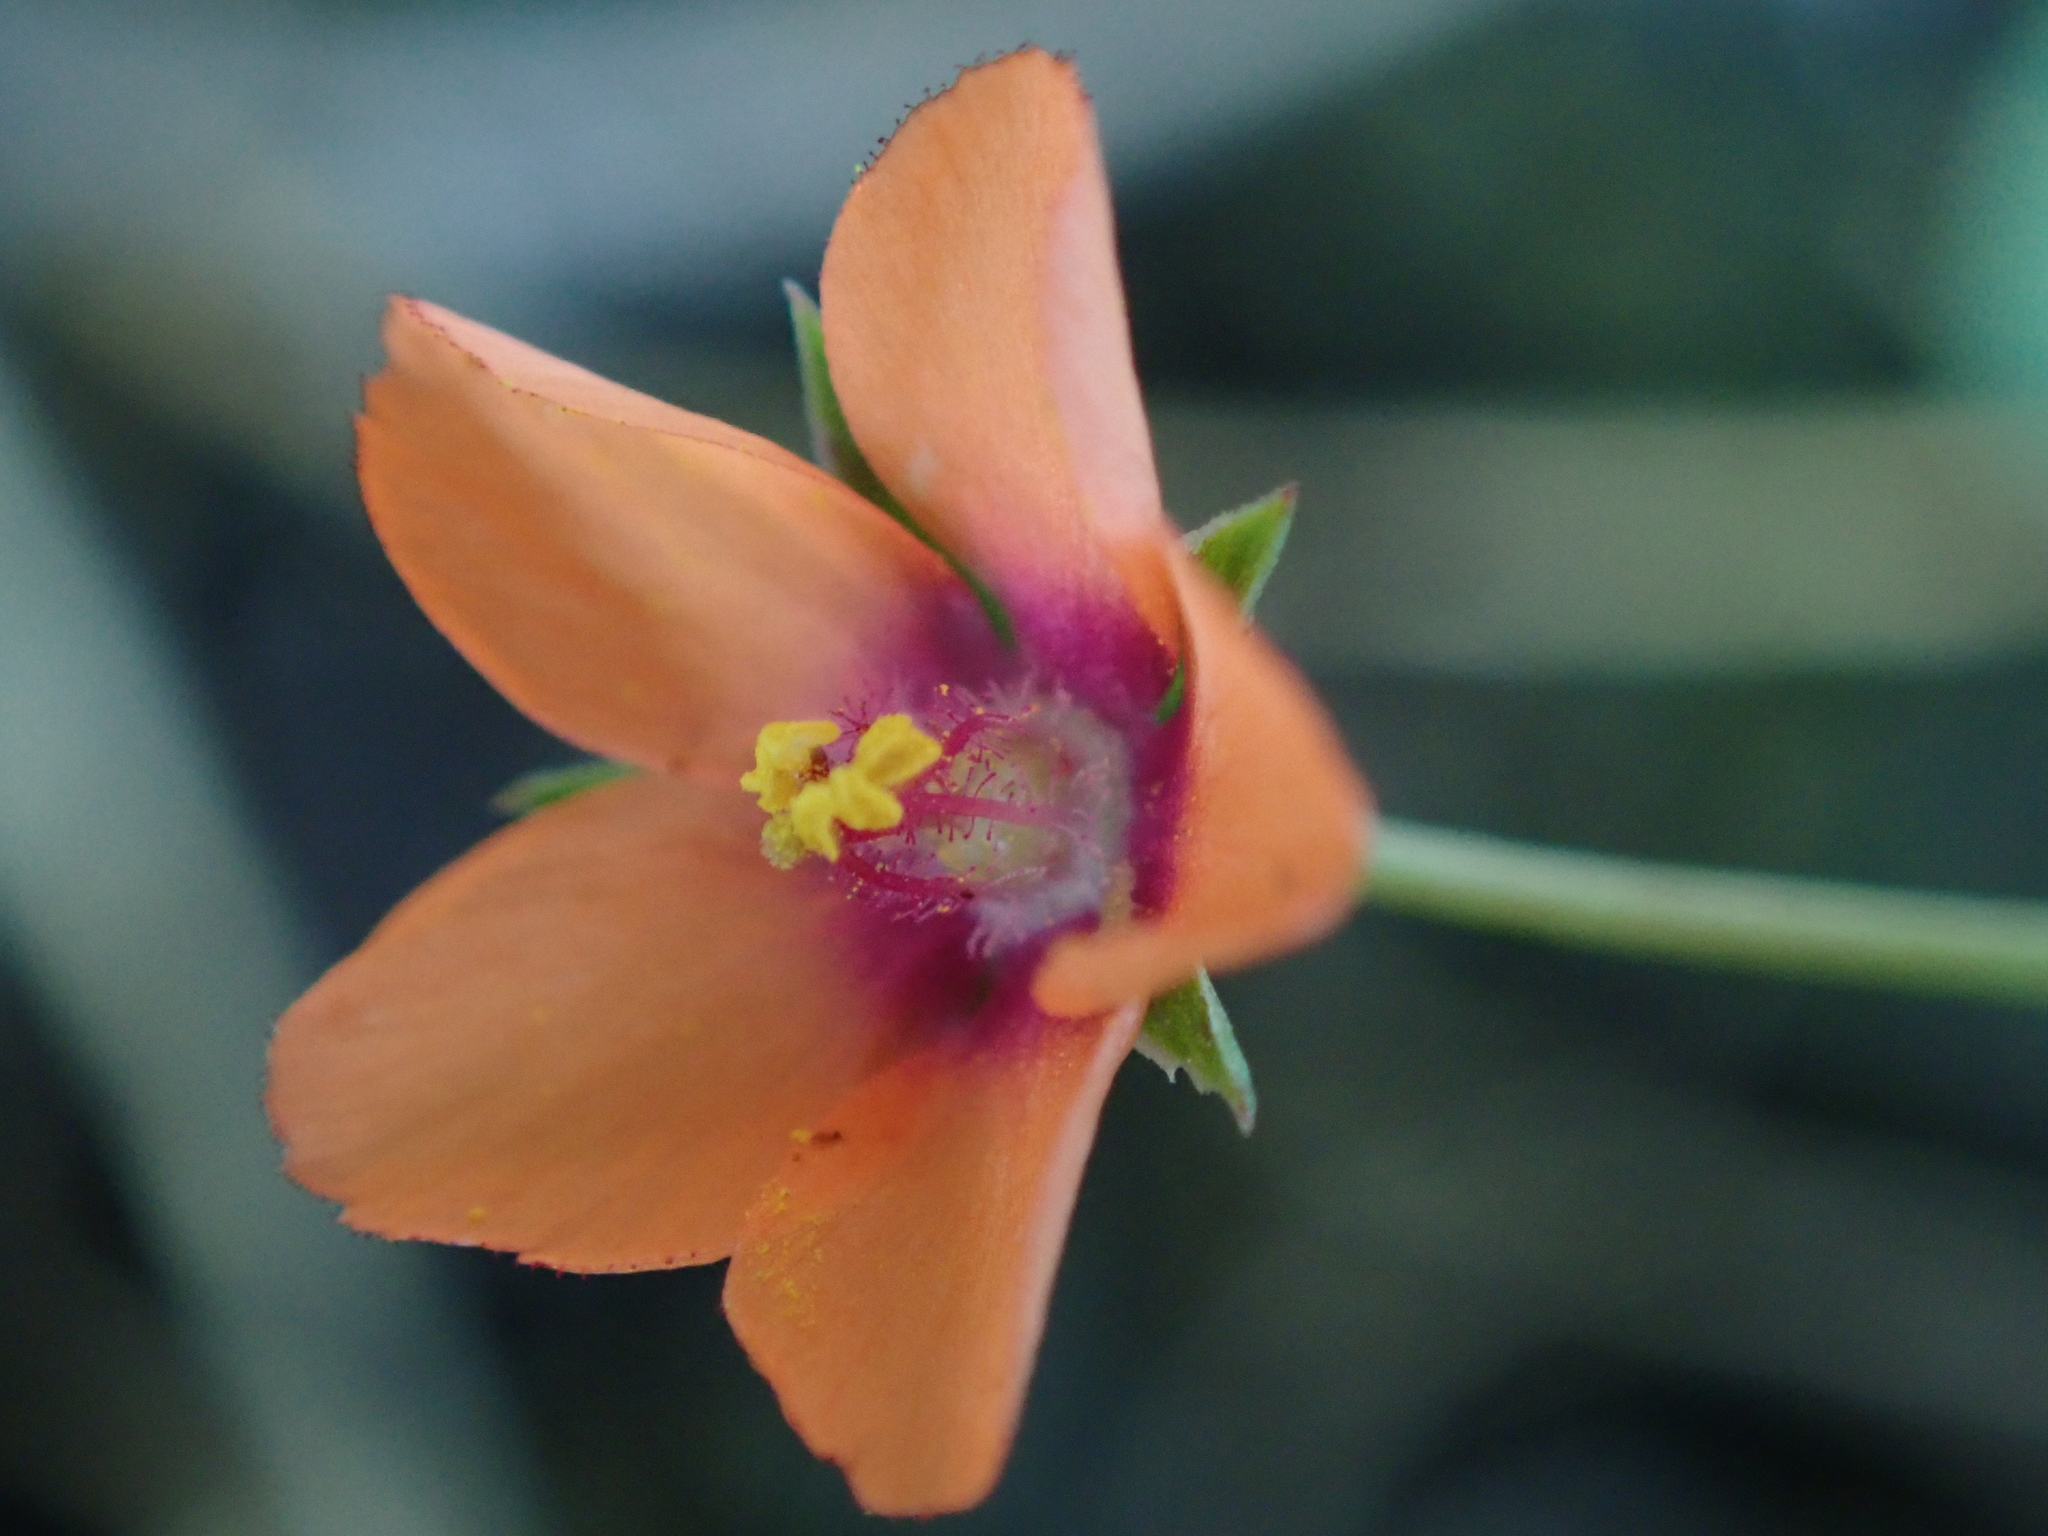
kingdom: Plantae
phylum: Tracheophyta
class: Magnoliopsida
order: Ericales
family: Primulaceae
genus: Lysimachia
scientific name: Lysimachia arvensis
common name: Scarlet pimpernel
